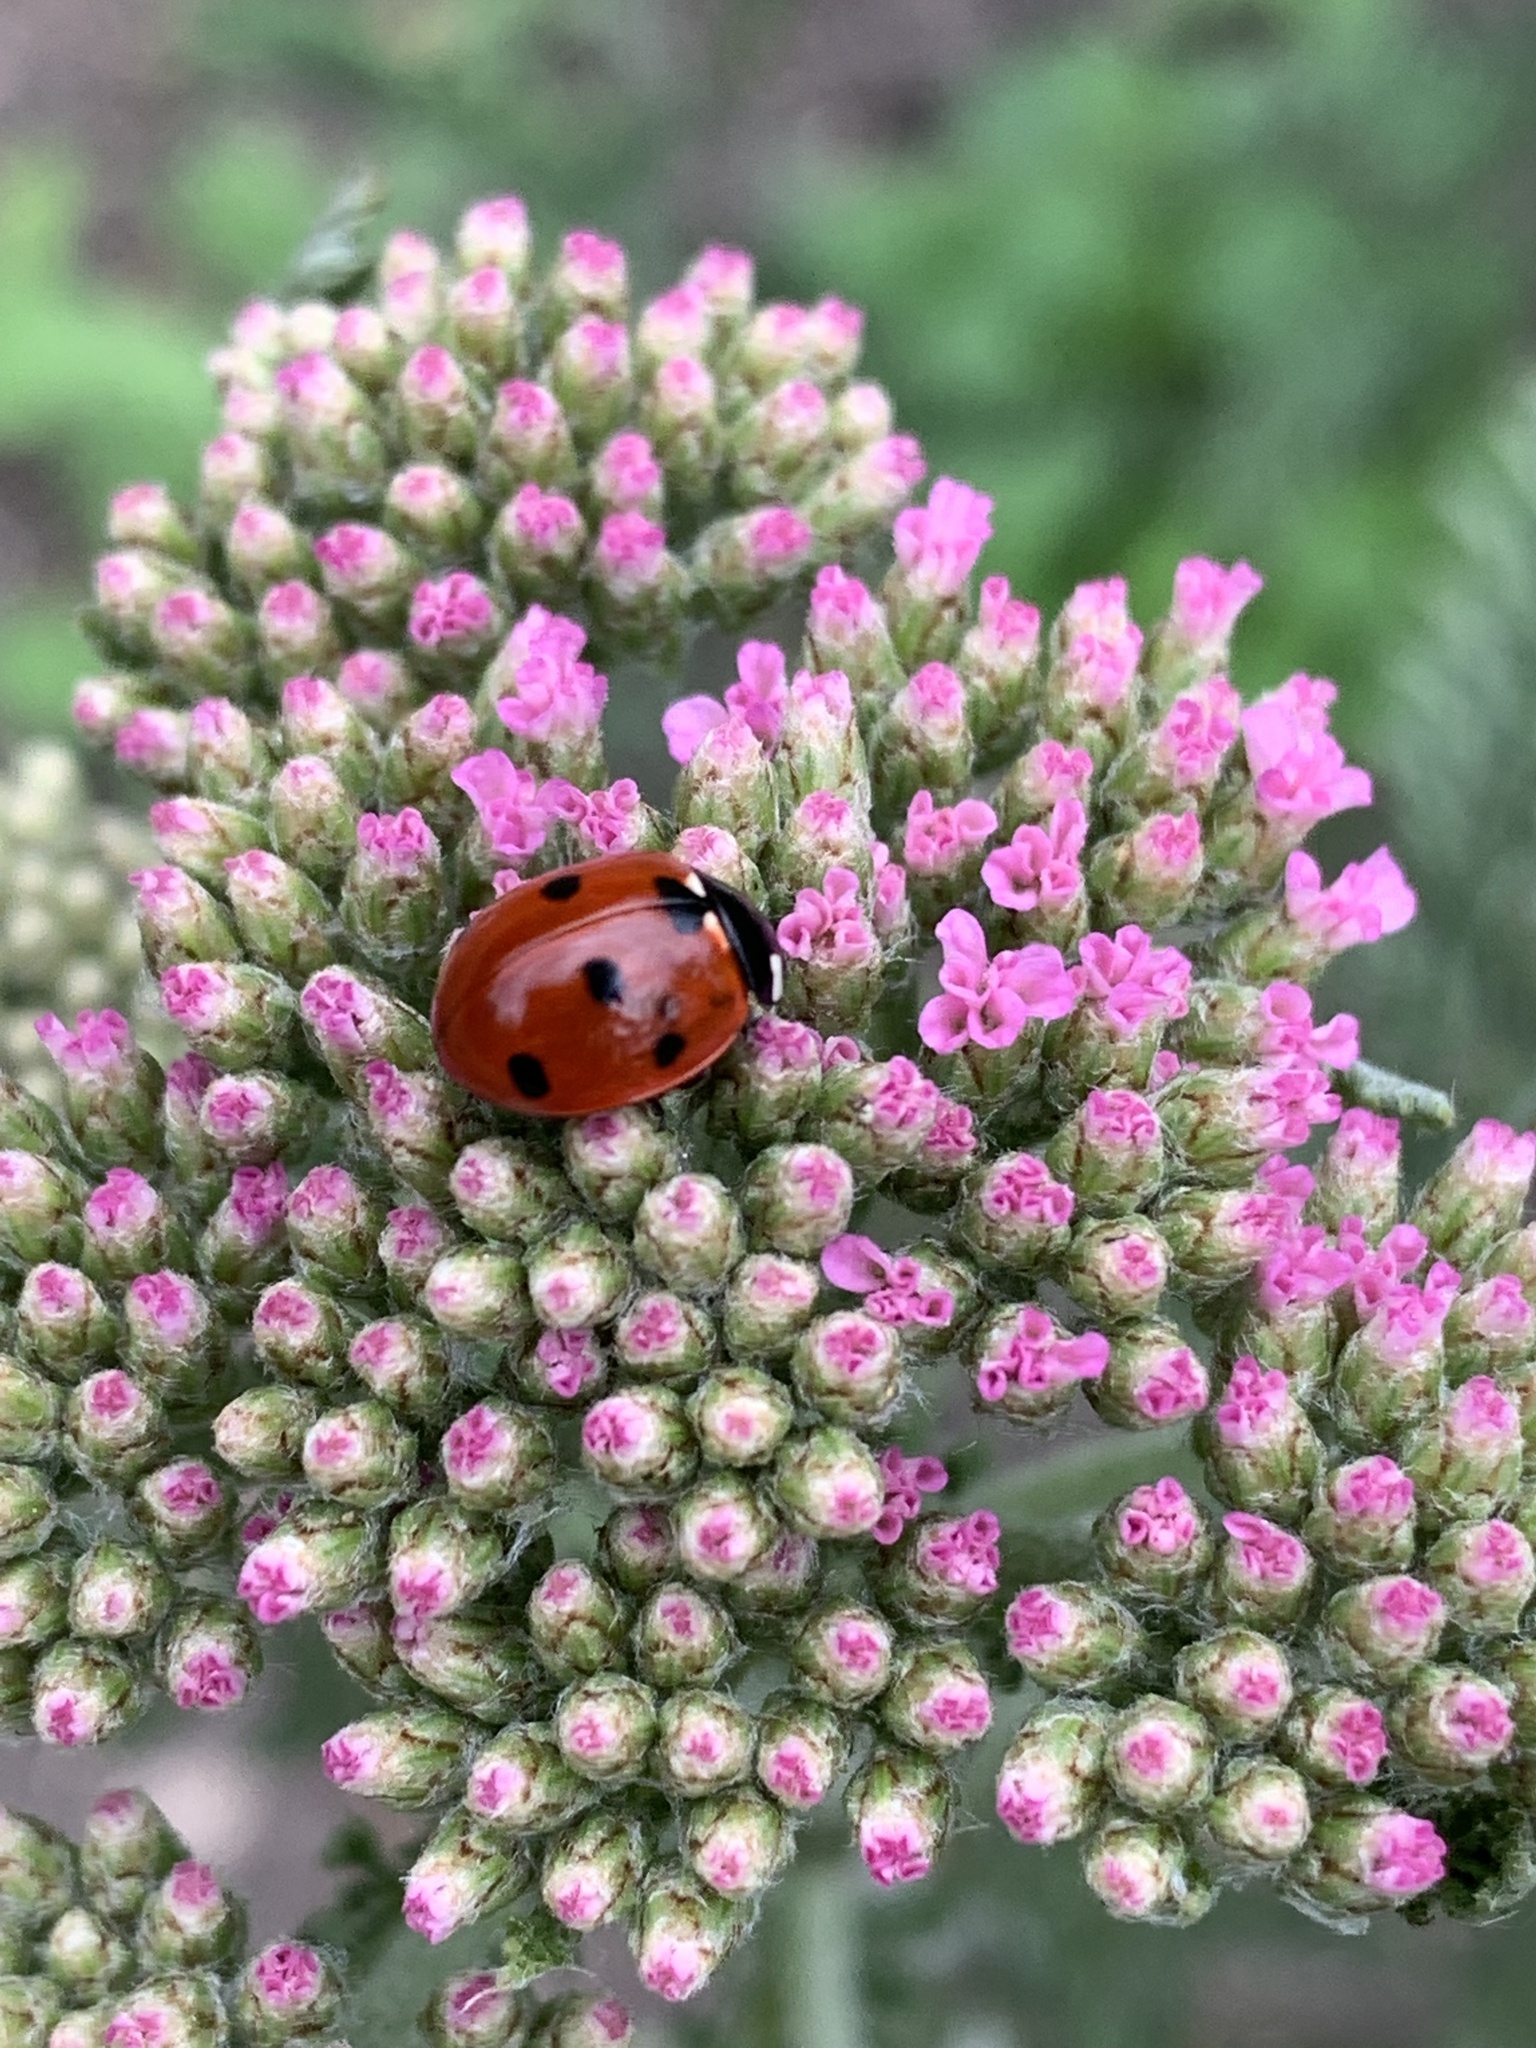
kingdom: Animalia
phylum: Arthropoda
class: Insecta
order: Coleoptera
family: Coccinellidae
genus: Coccinella
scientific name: Coccinella septempunctata
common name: Sevenspotted lady beetle
